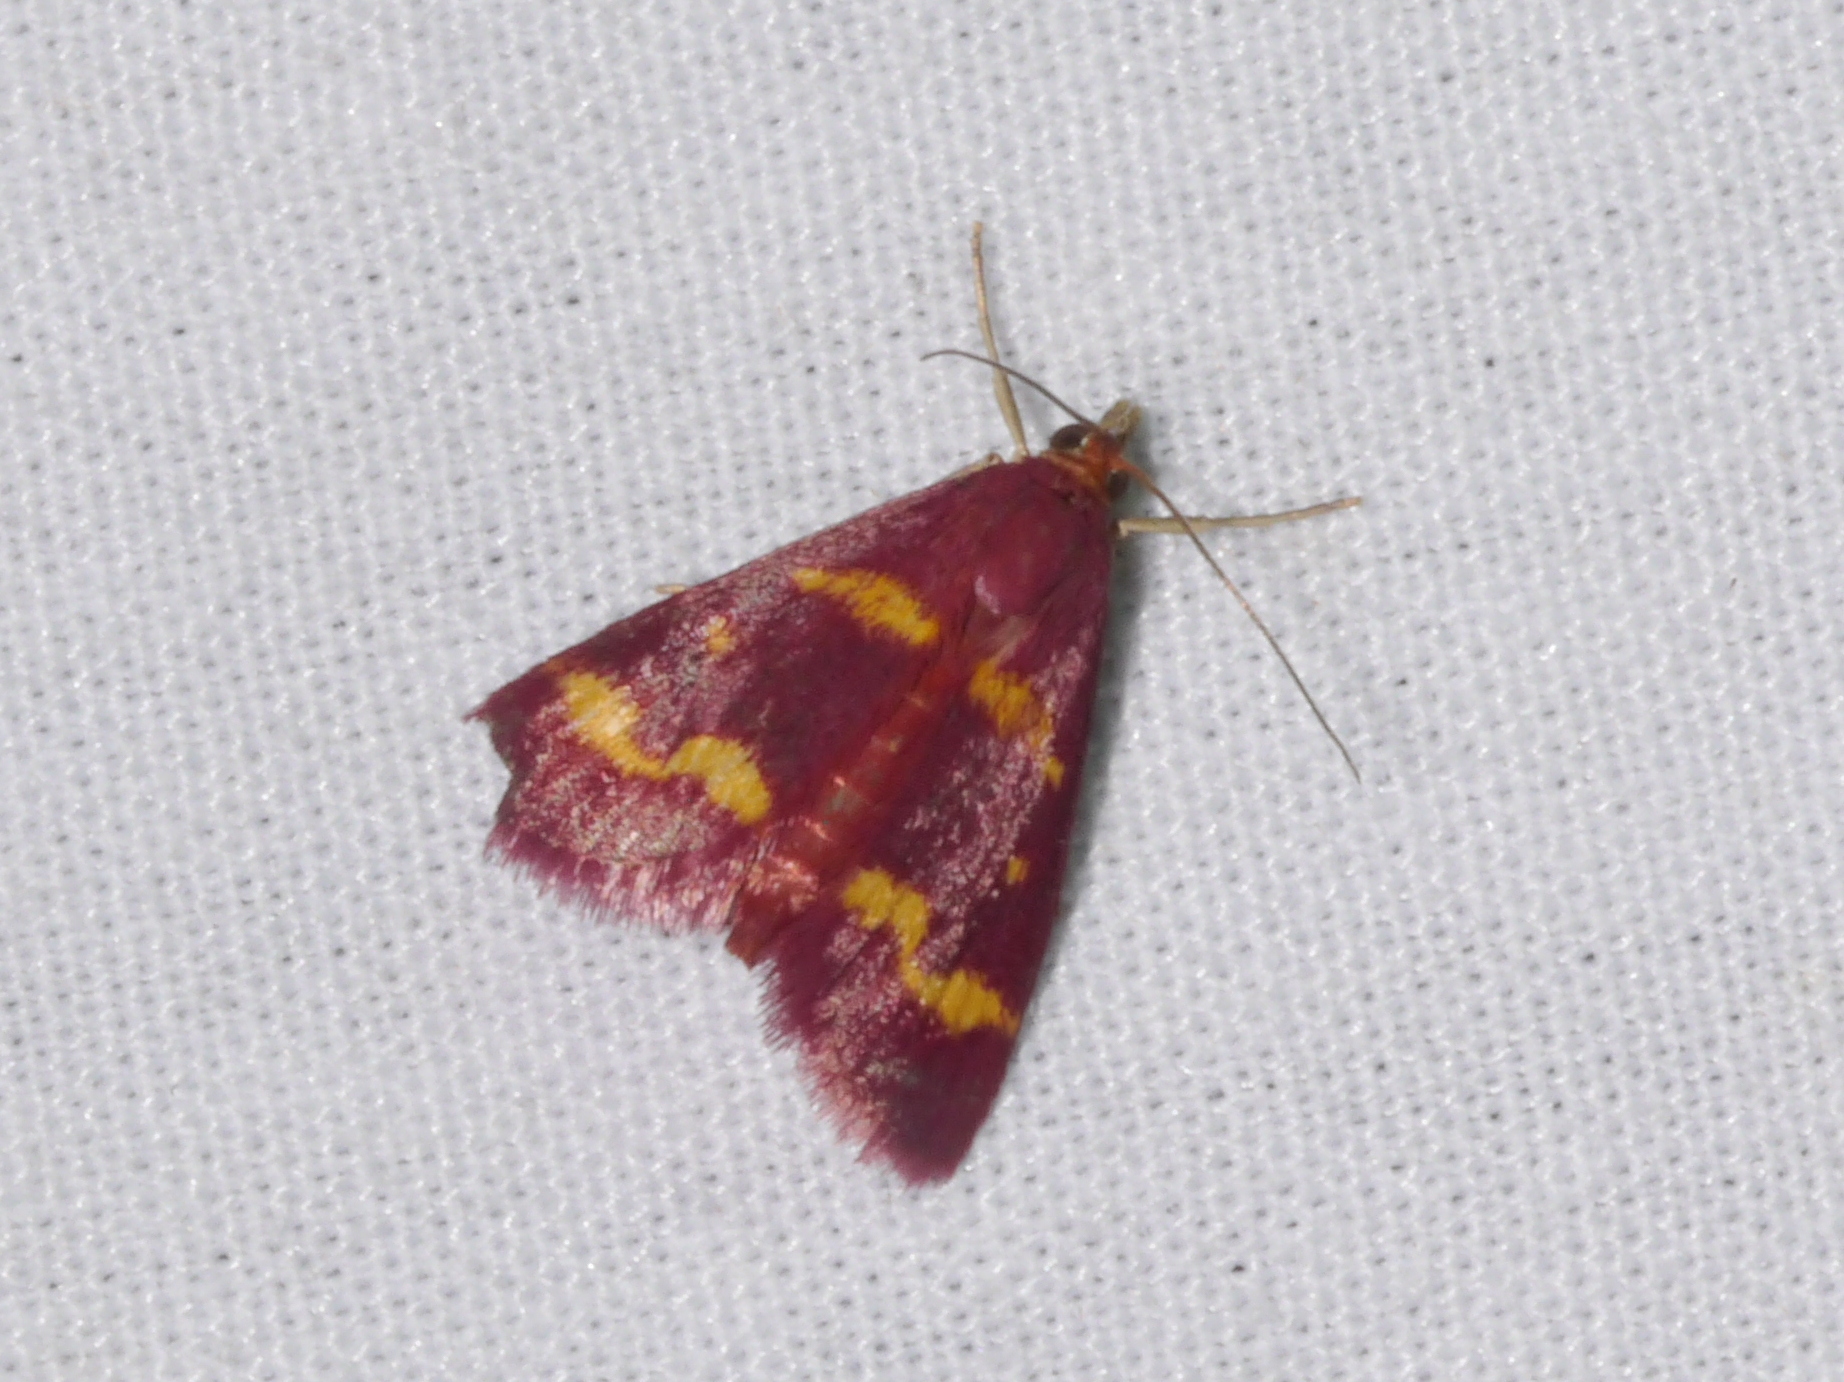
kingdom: Animalia
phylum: Arthropoda
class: Insecta
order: Lepidoptera
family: Crambidae
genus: Pyrausta
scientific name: Pyrausta tyralis
